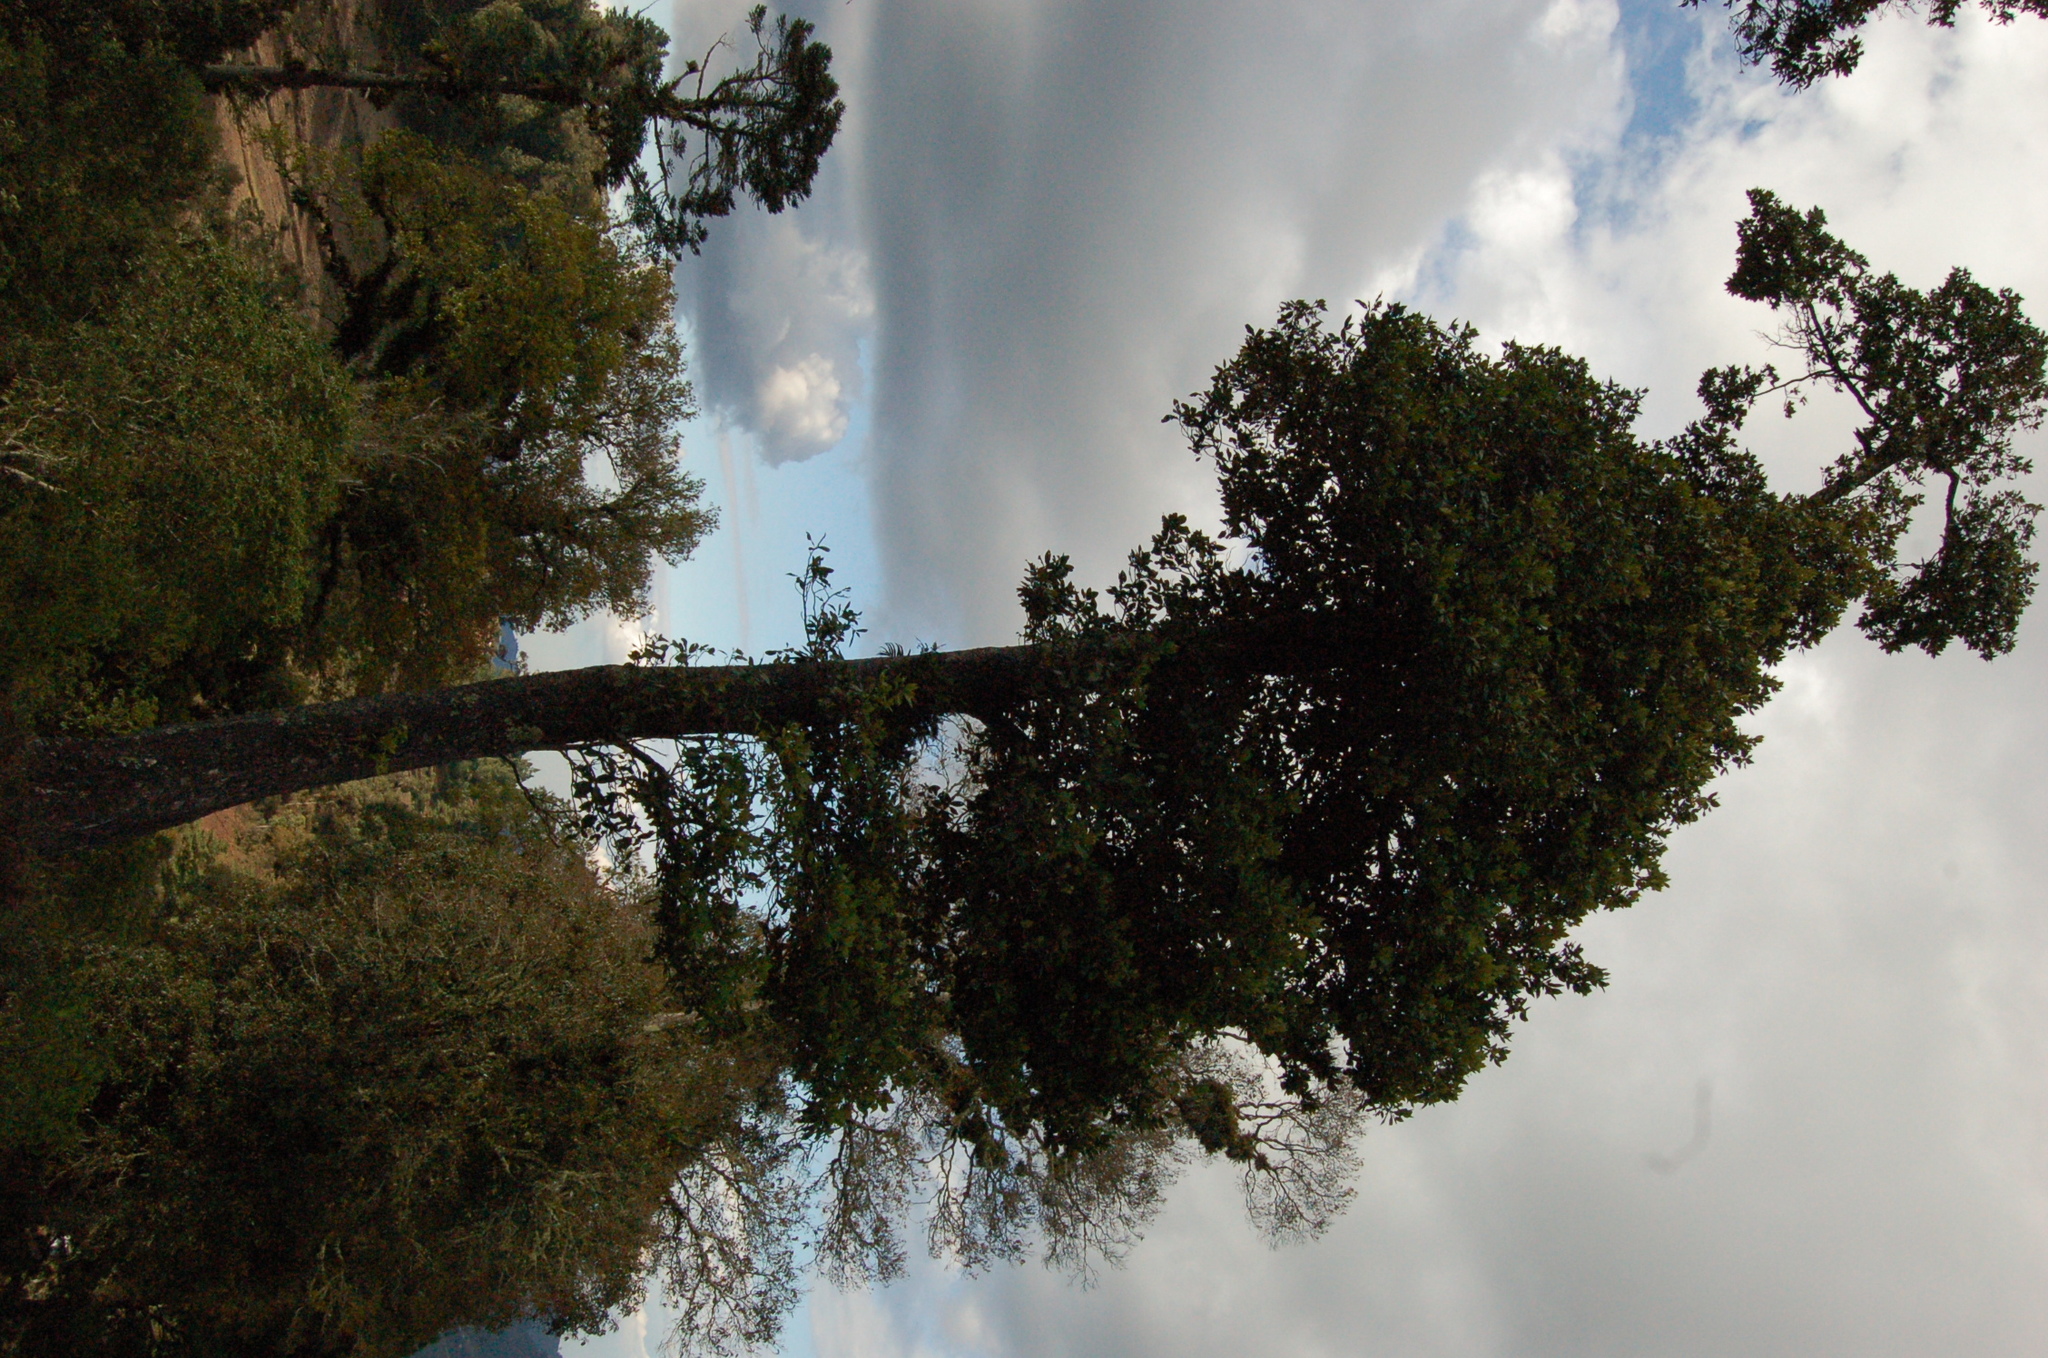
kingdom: Plantae
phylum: Tracheophyta
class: Magnoliopsida
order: Laurales
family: Lauraceae
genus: Persea
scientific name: Persea americana
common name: Avocado
